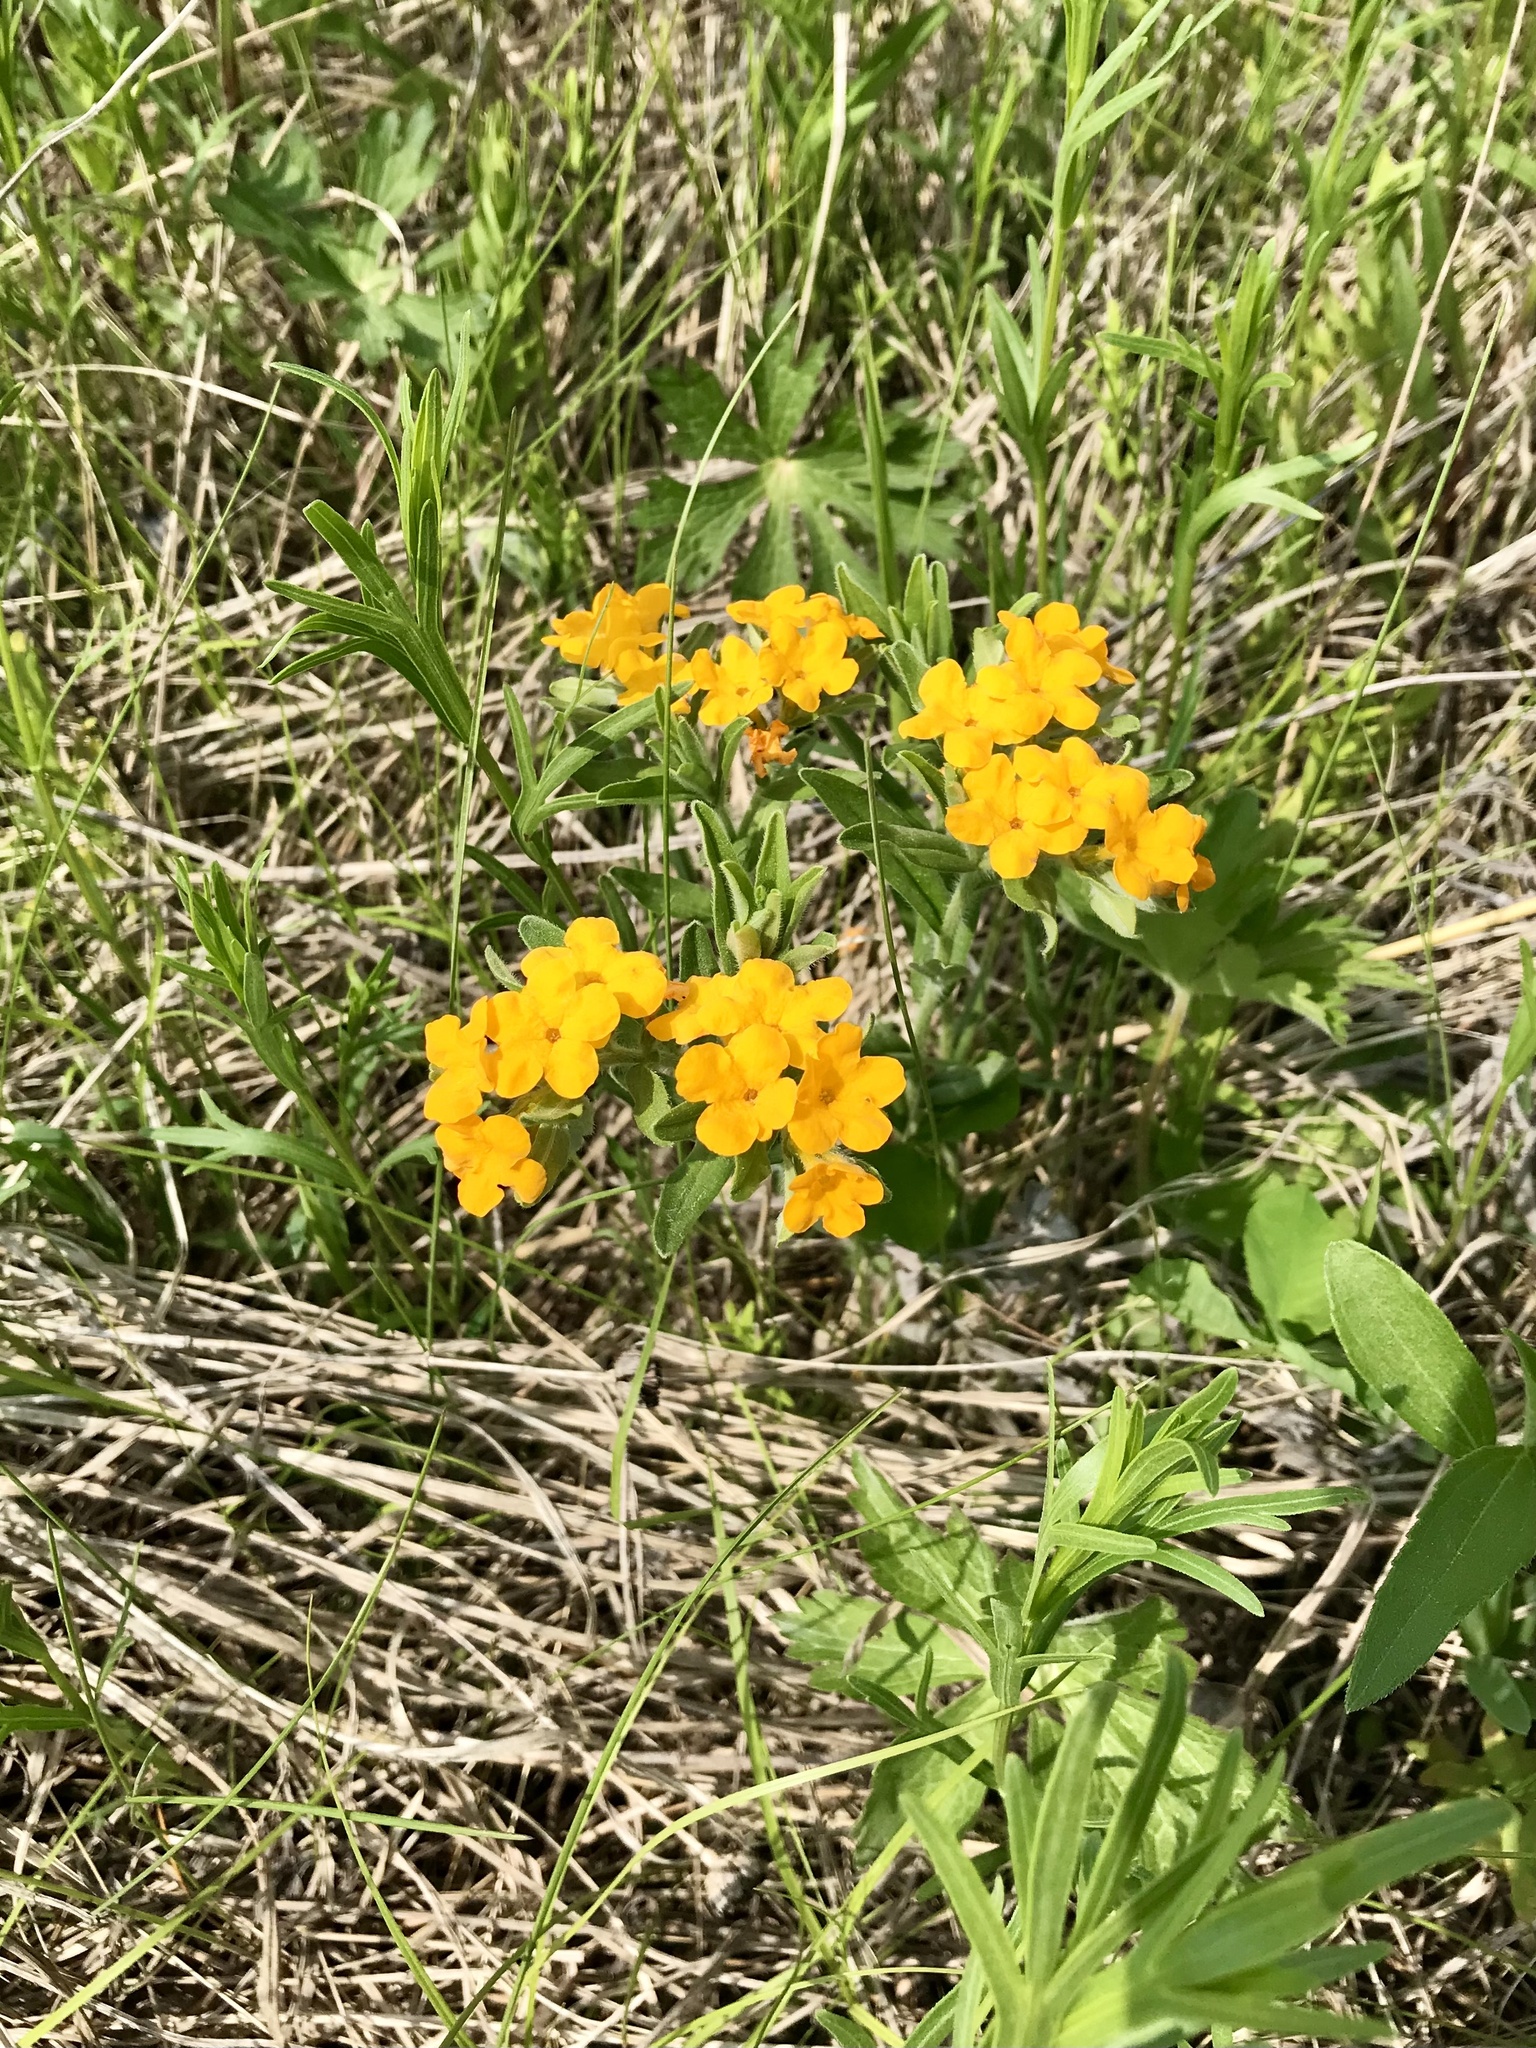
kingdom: Plantae
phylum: Tracheophyta
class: Magnoliopsida
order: Boraginales
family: Boraginaceae
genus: Lithospermum
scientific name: Lithospermum canescens
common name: Hoary puccoon
